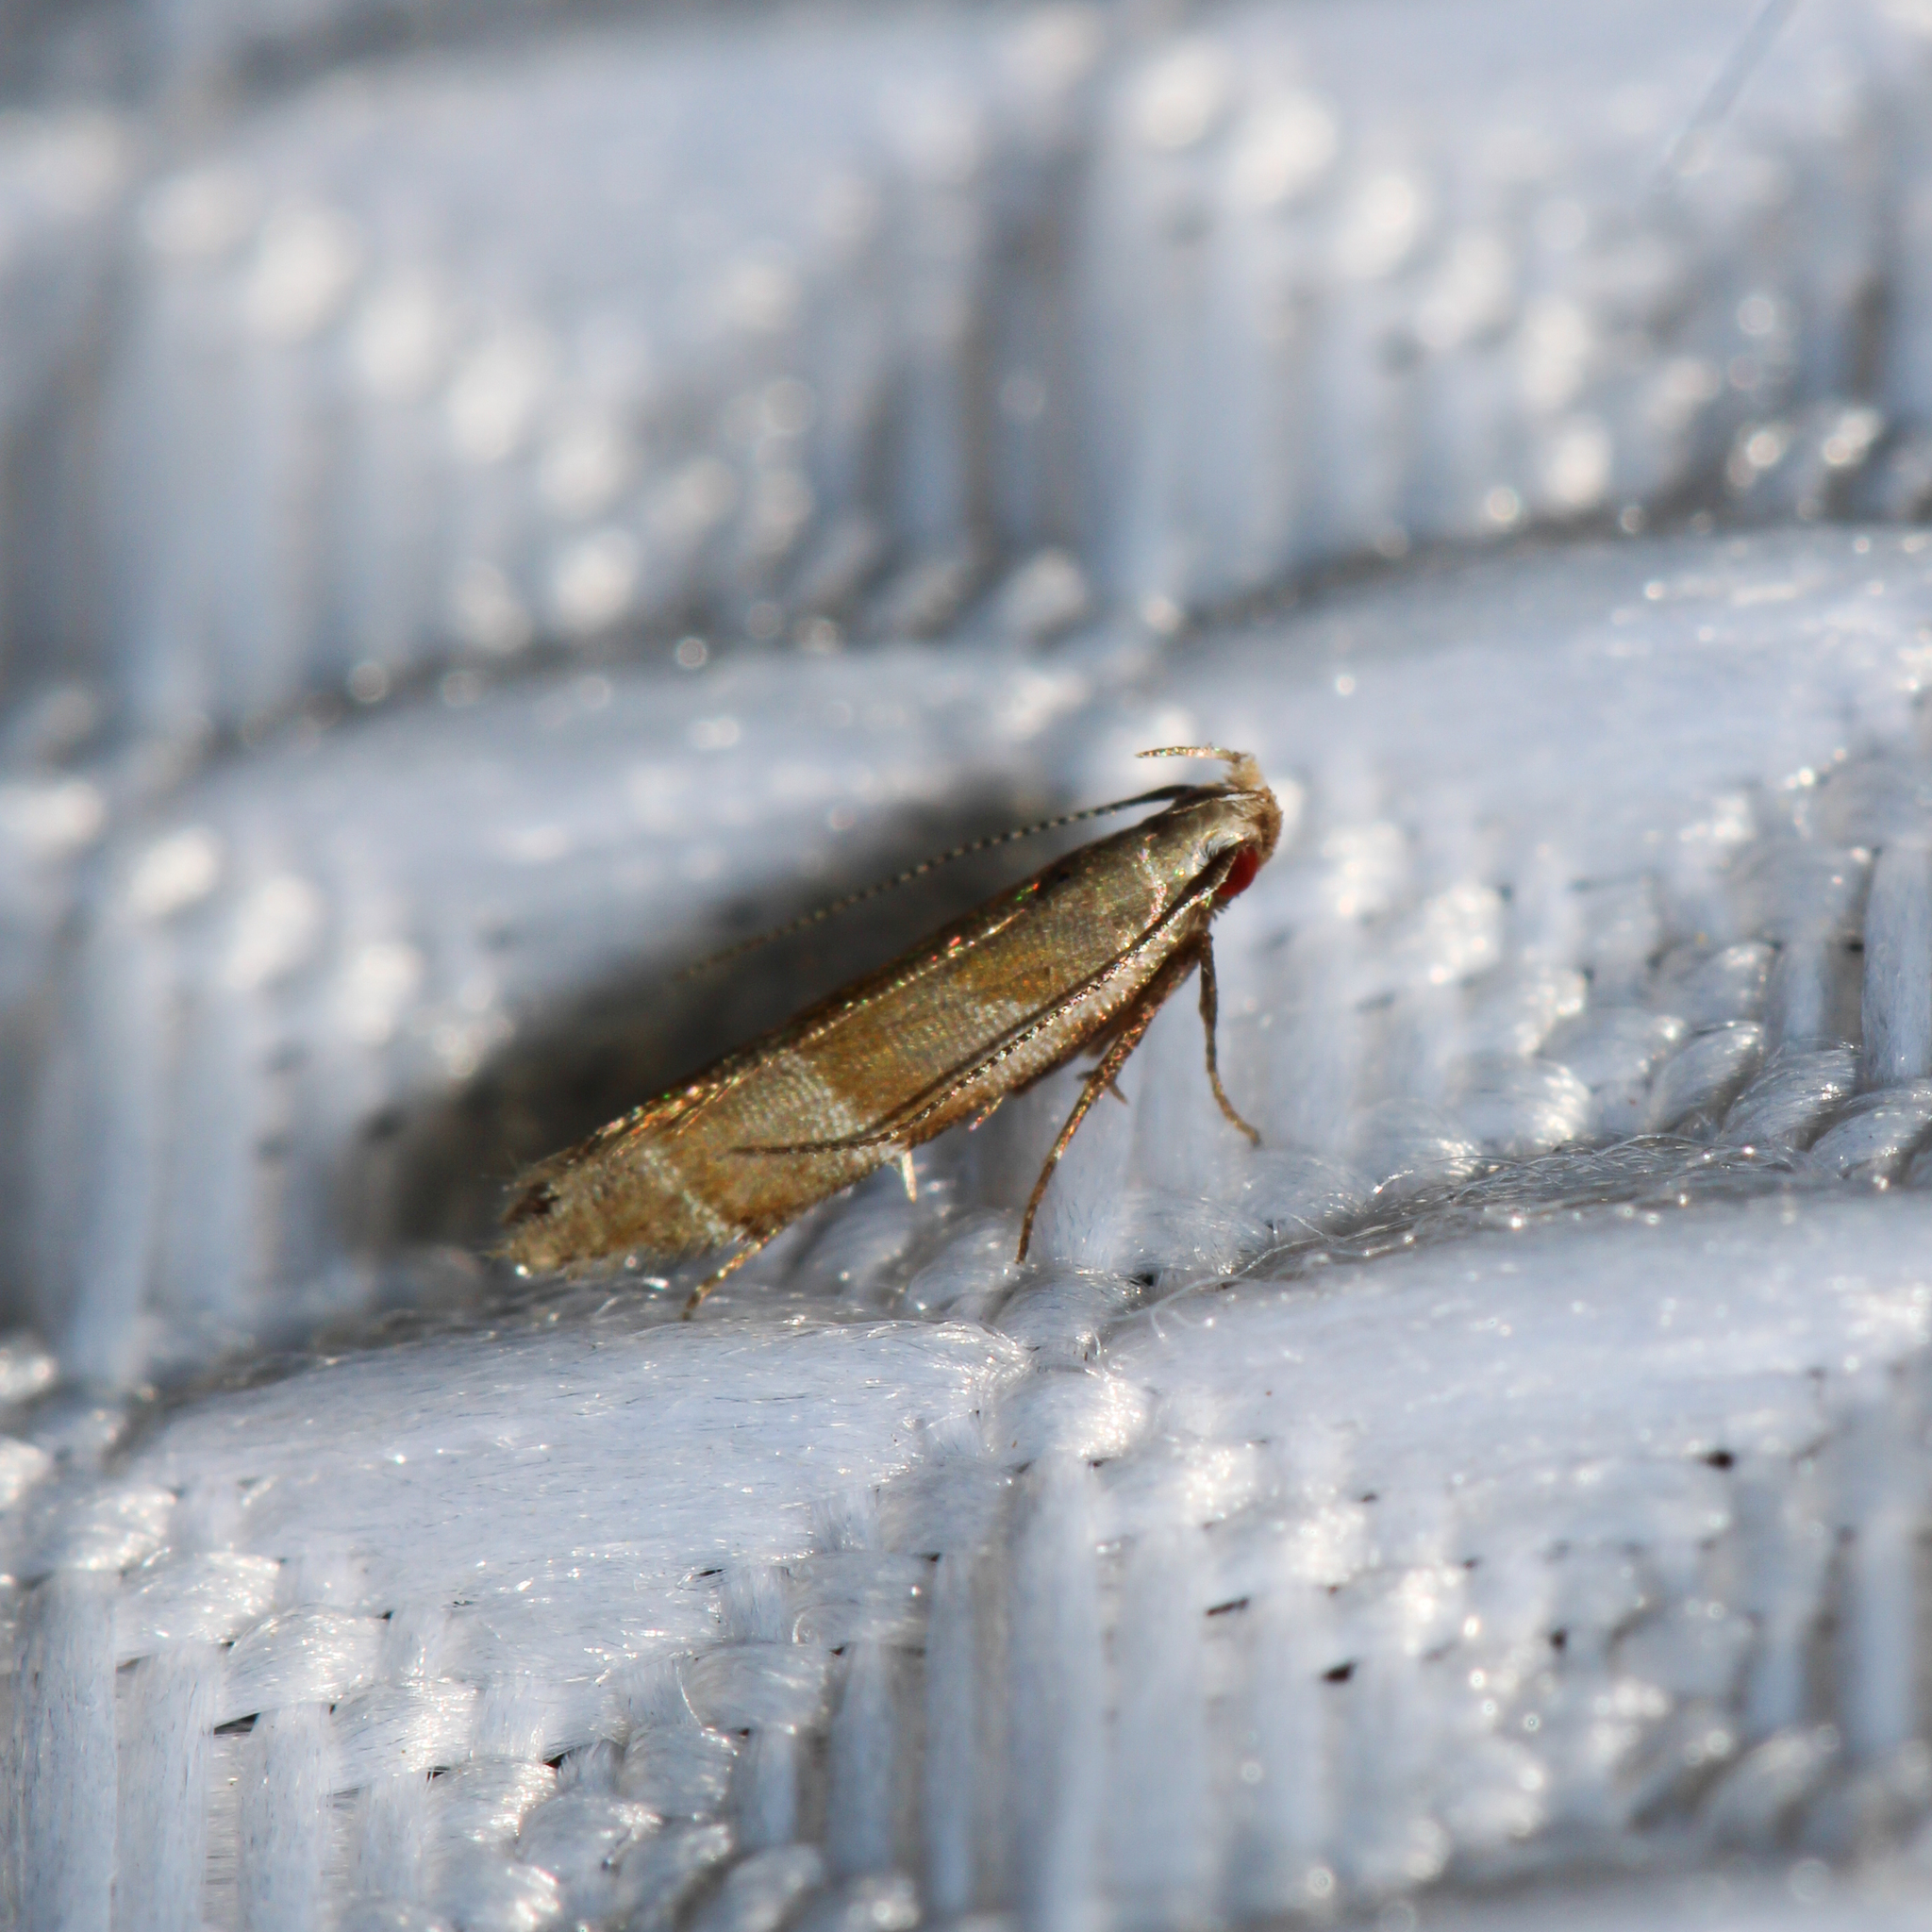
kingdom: Animalia
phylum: Arthropoda
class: Insecta
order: Lepidoptera
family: Gelechiidae
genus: Battaristis
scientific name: Battaristis vittella
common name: Orange stripe-backed moth
